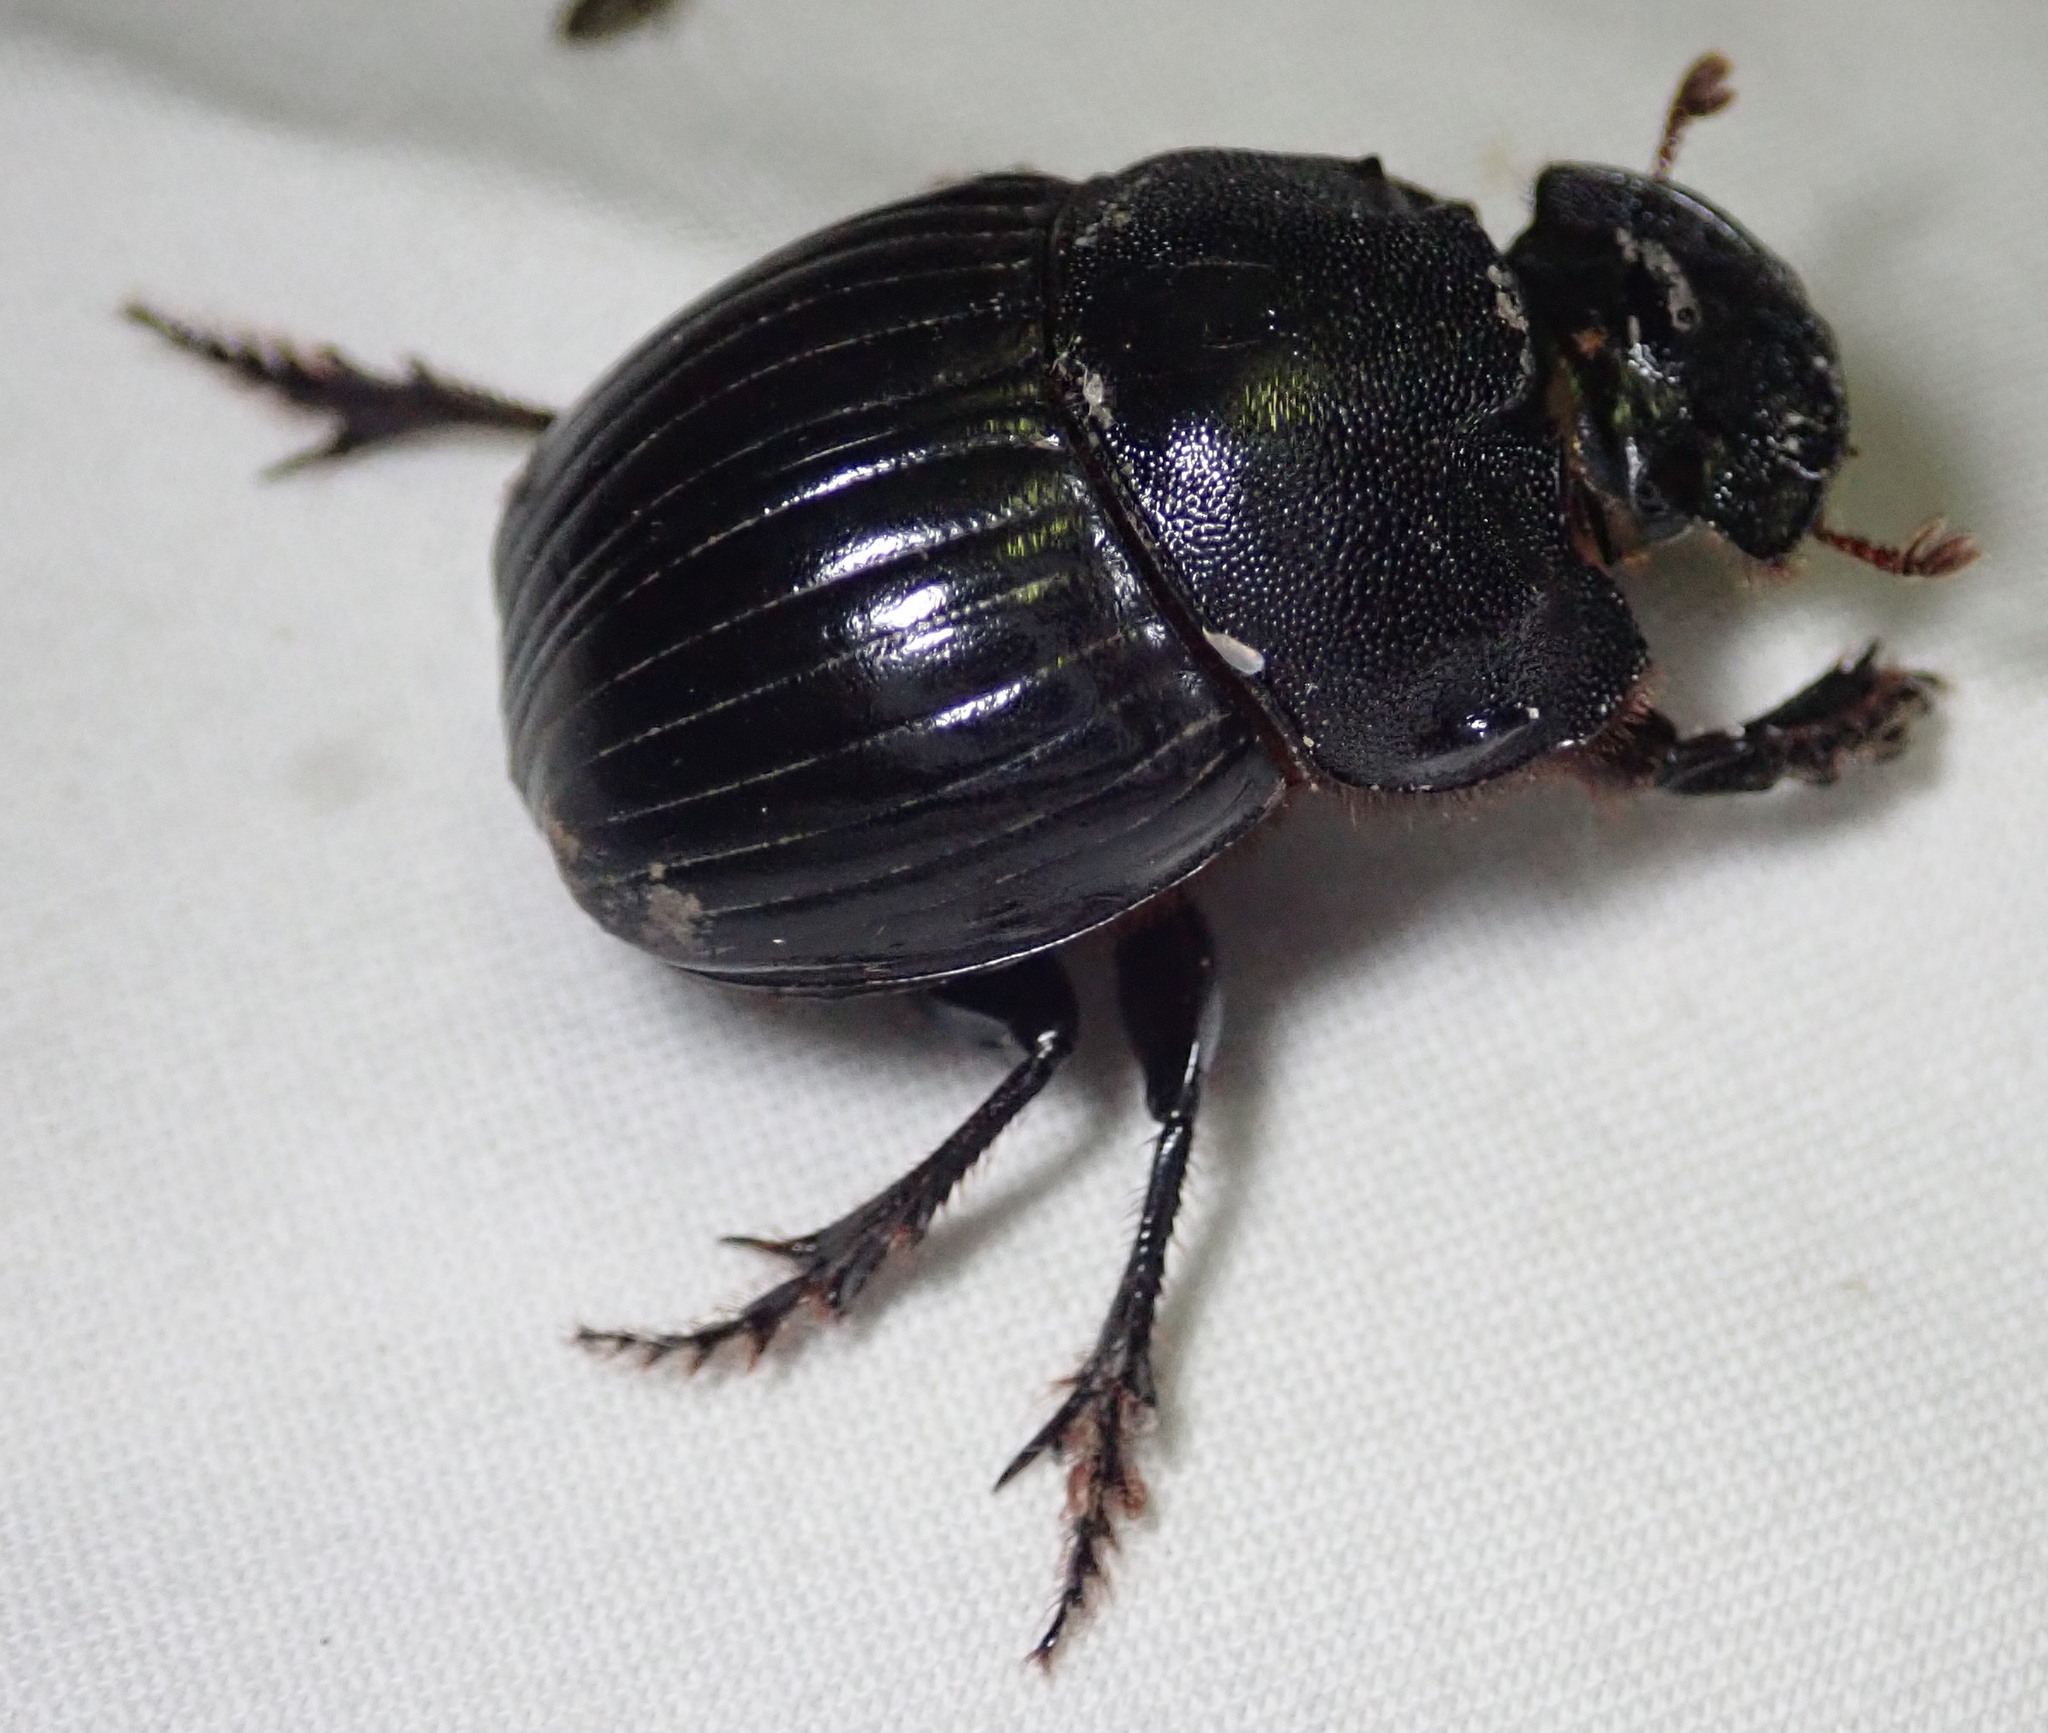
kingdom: Animalia
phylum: Arthropoda
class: Insecta
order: Coleoptera
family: Scarabaeidae
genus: Copris
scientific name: Copris elphenor
